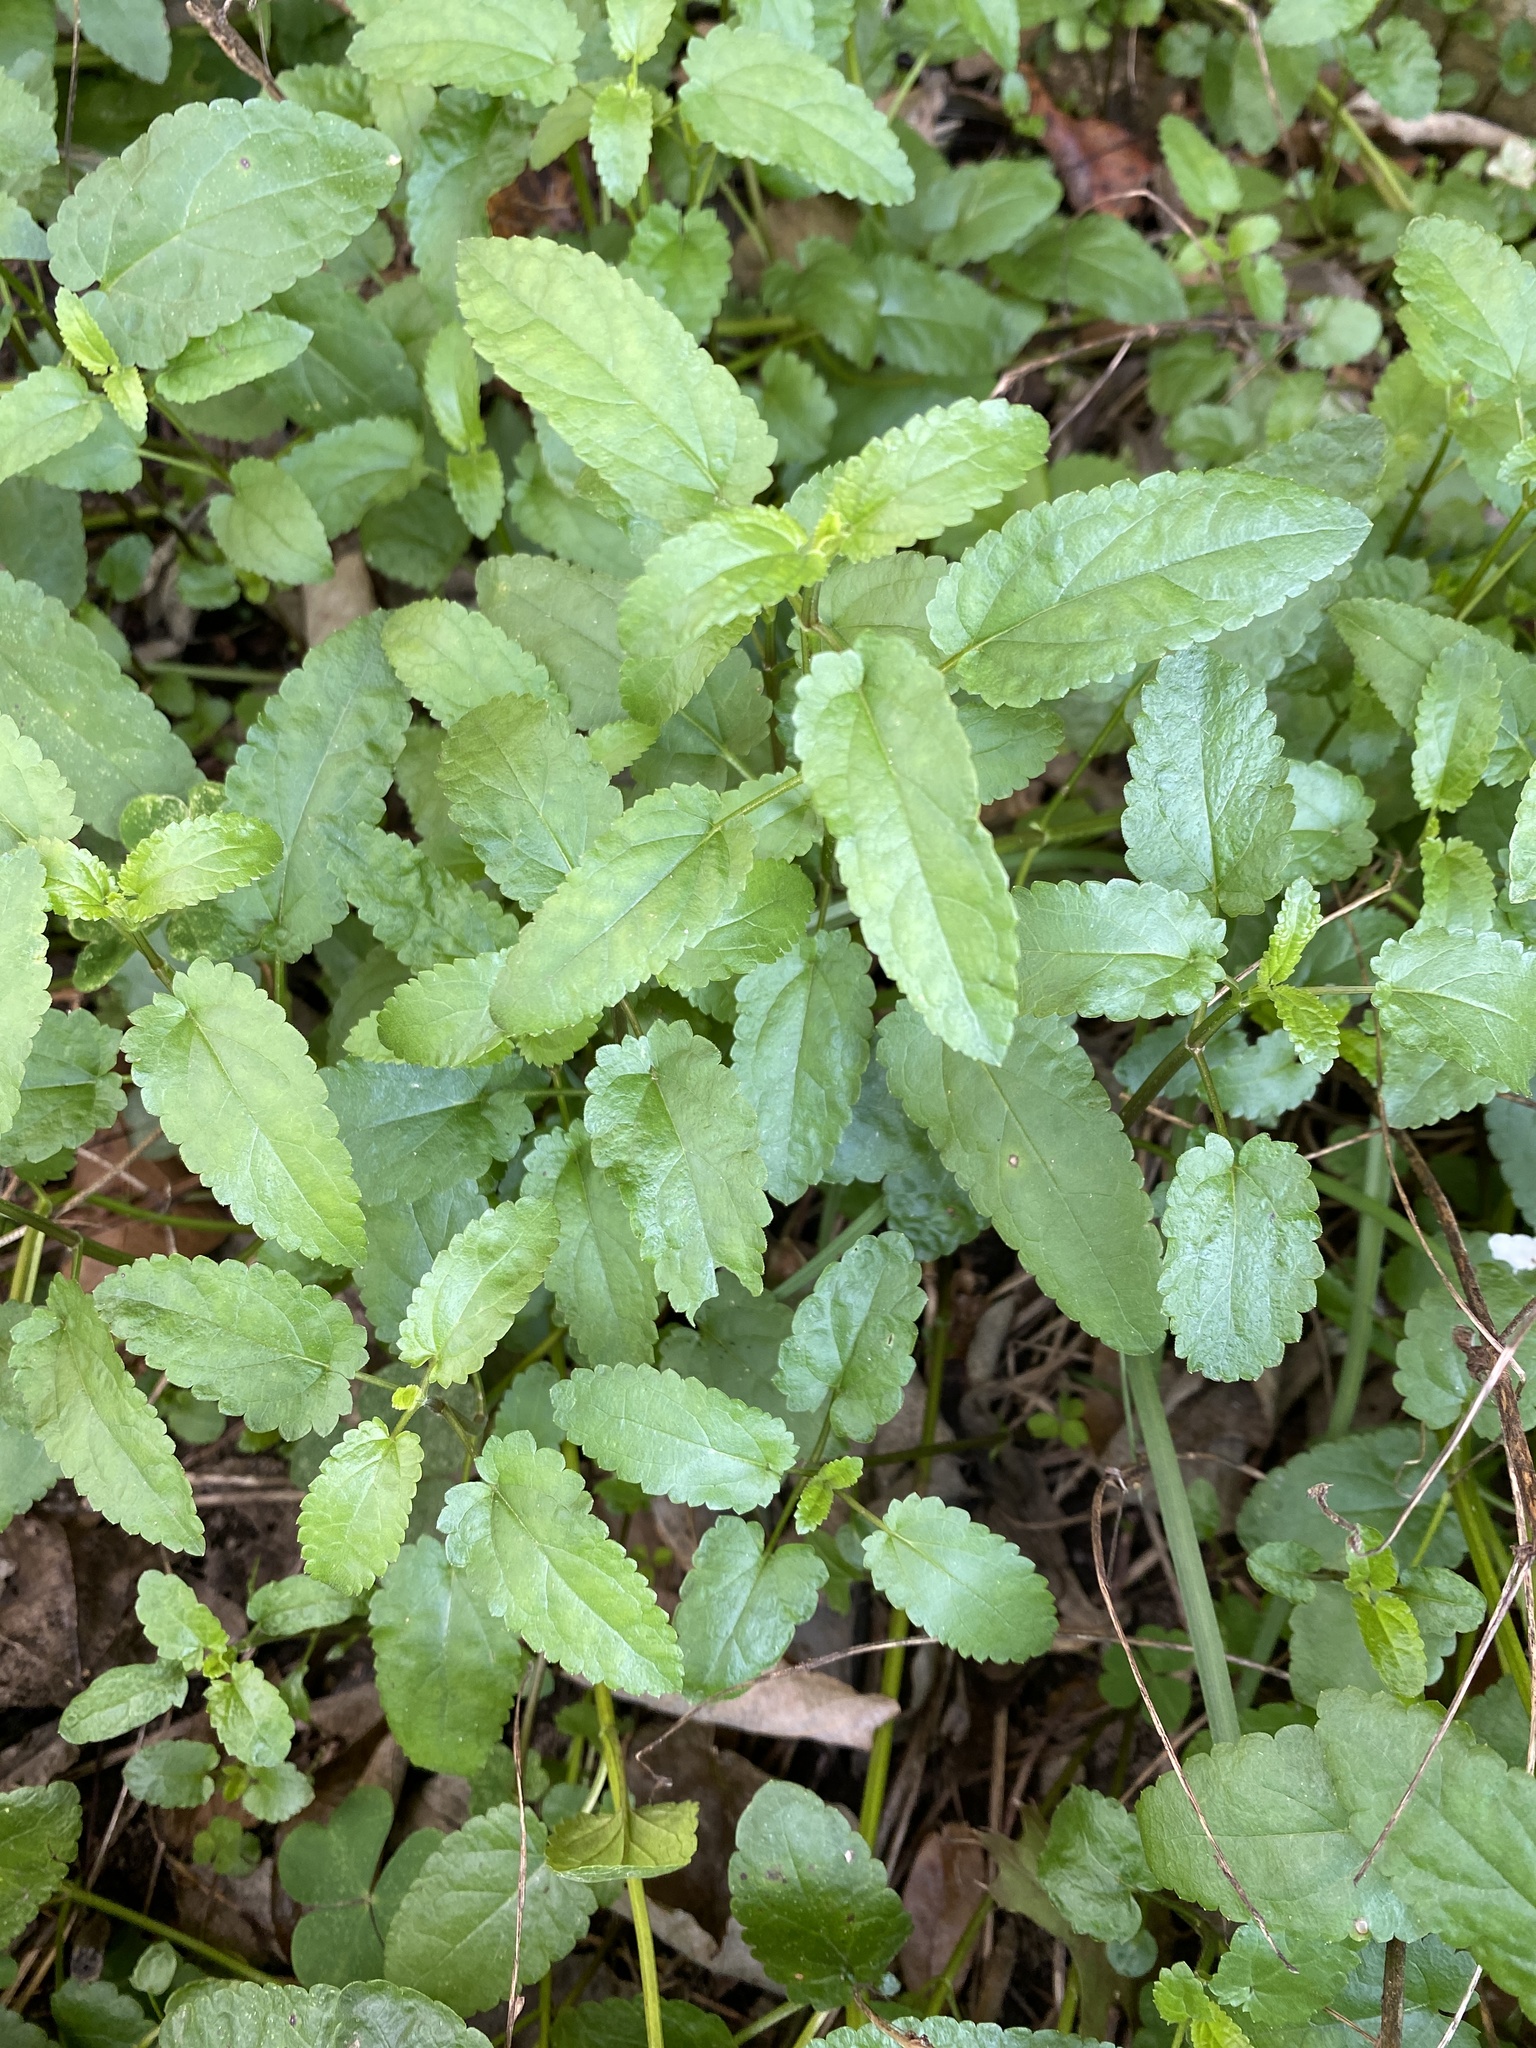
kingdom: Plantae
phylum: Tracheophyta
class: Magnoliopsida
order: Lamiales
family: Lamiaceae
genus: Stachys
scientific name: Stachys floridana
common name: Florida betony
